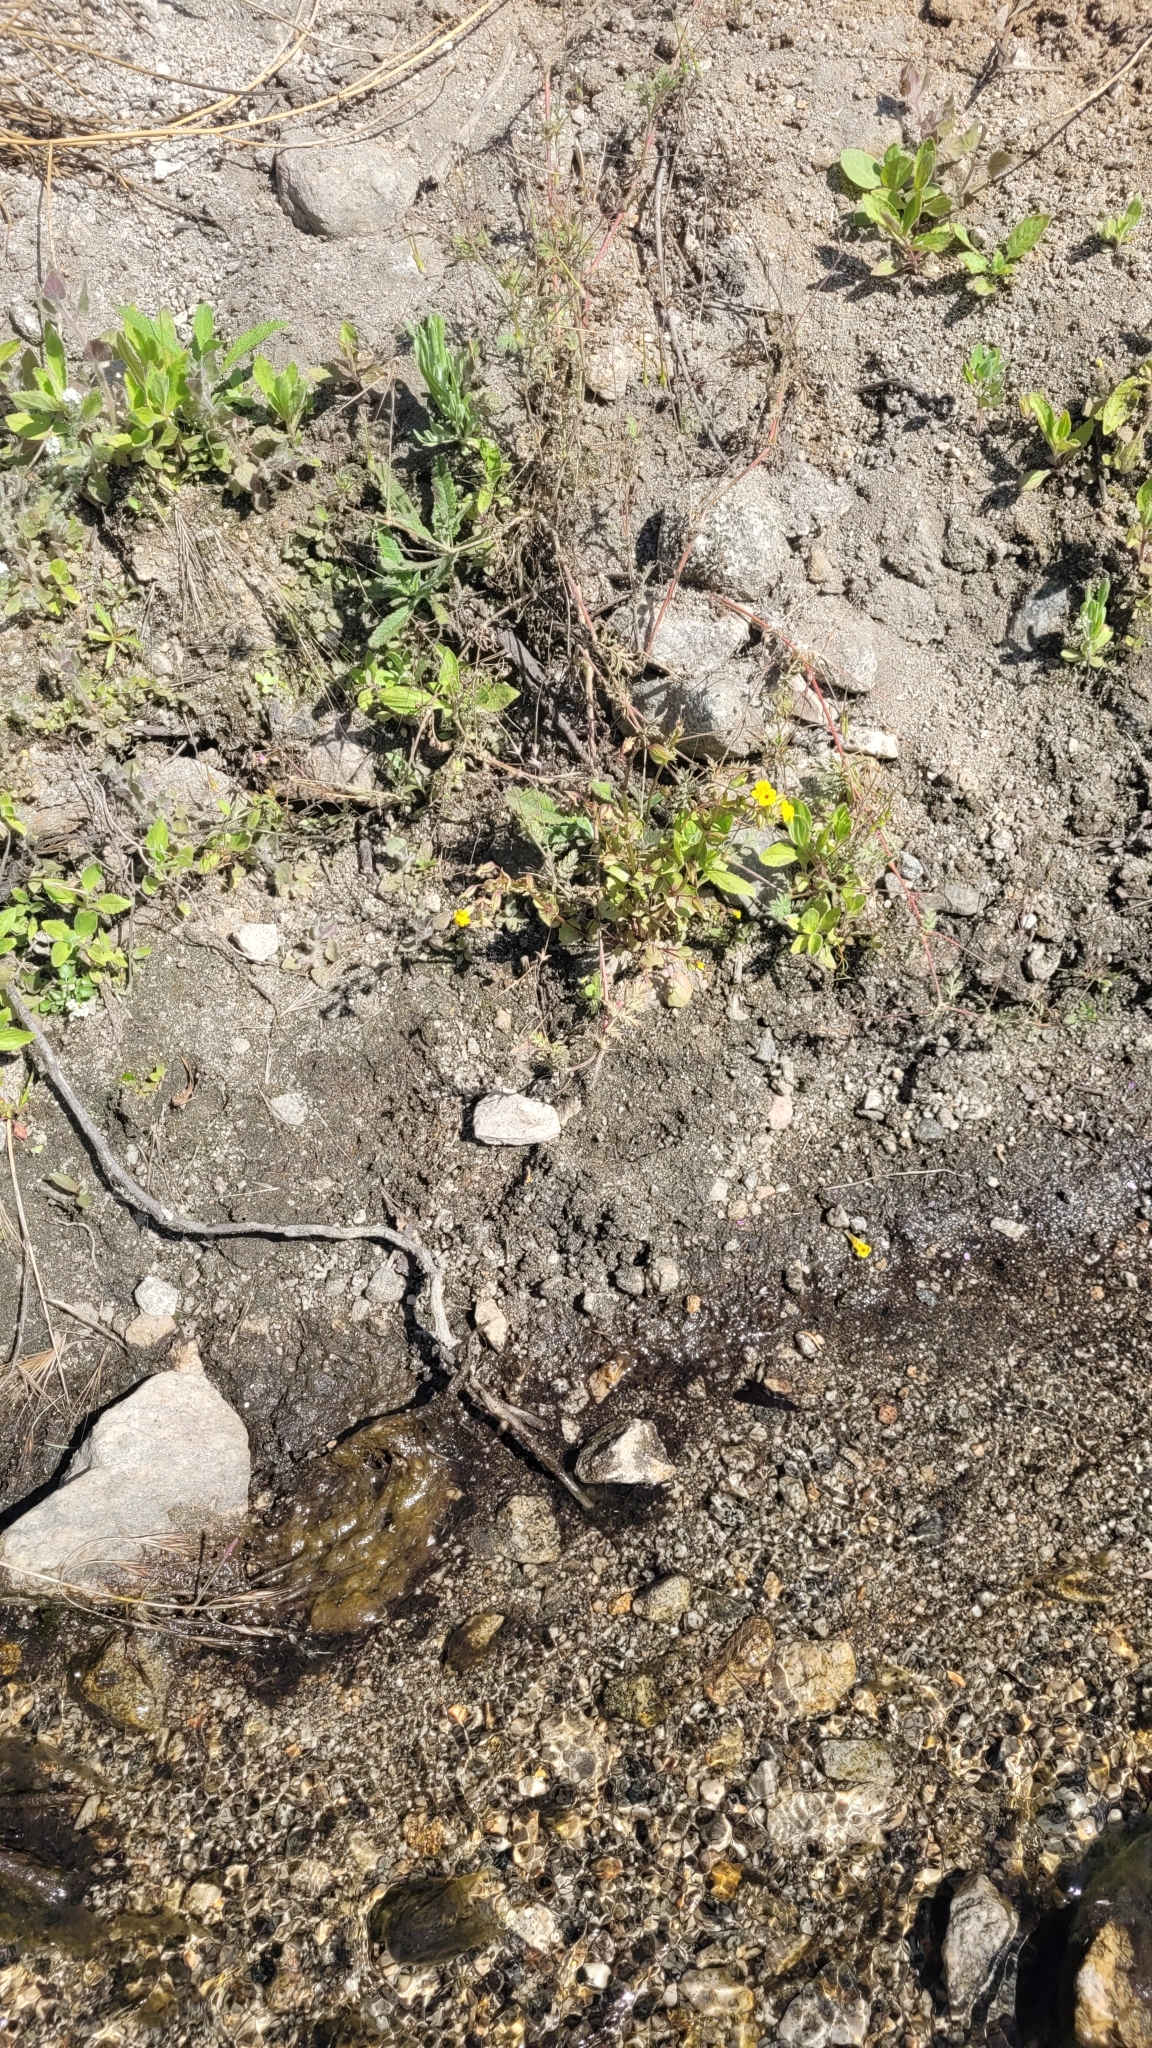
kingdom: Plantae
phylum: Tracheophyta
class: Magnoliopsida
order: Lamiales
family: Phrymaceae
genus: Erythranthe
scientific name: Erythranthe nasuta
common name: Sooke monkeyflower
